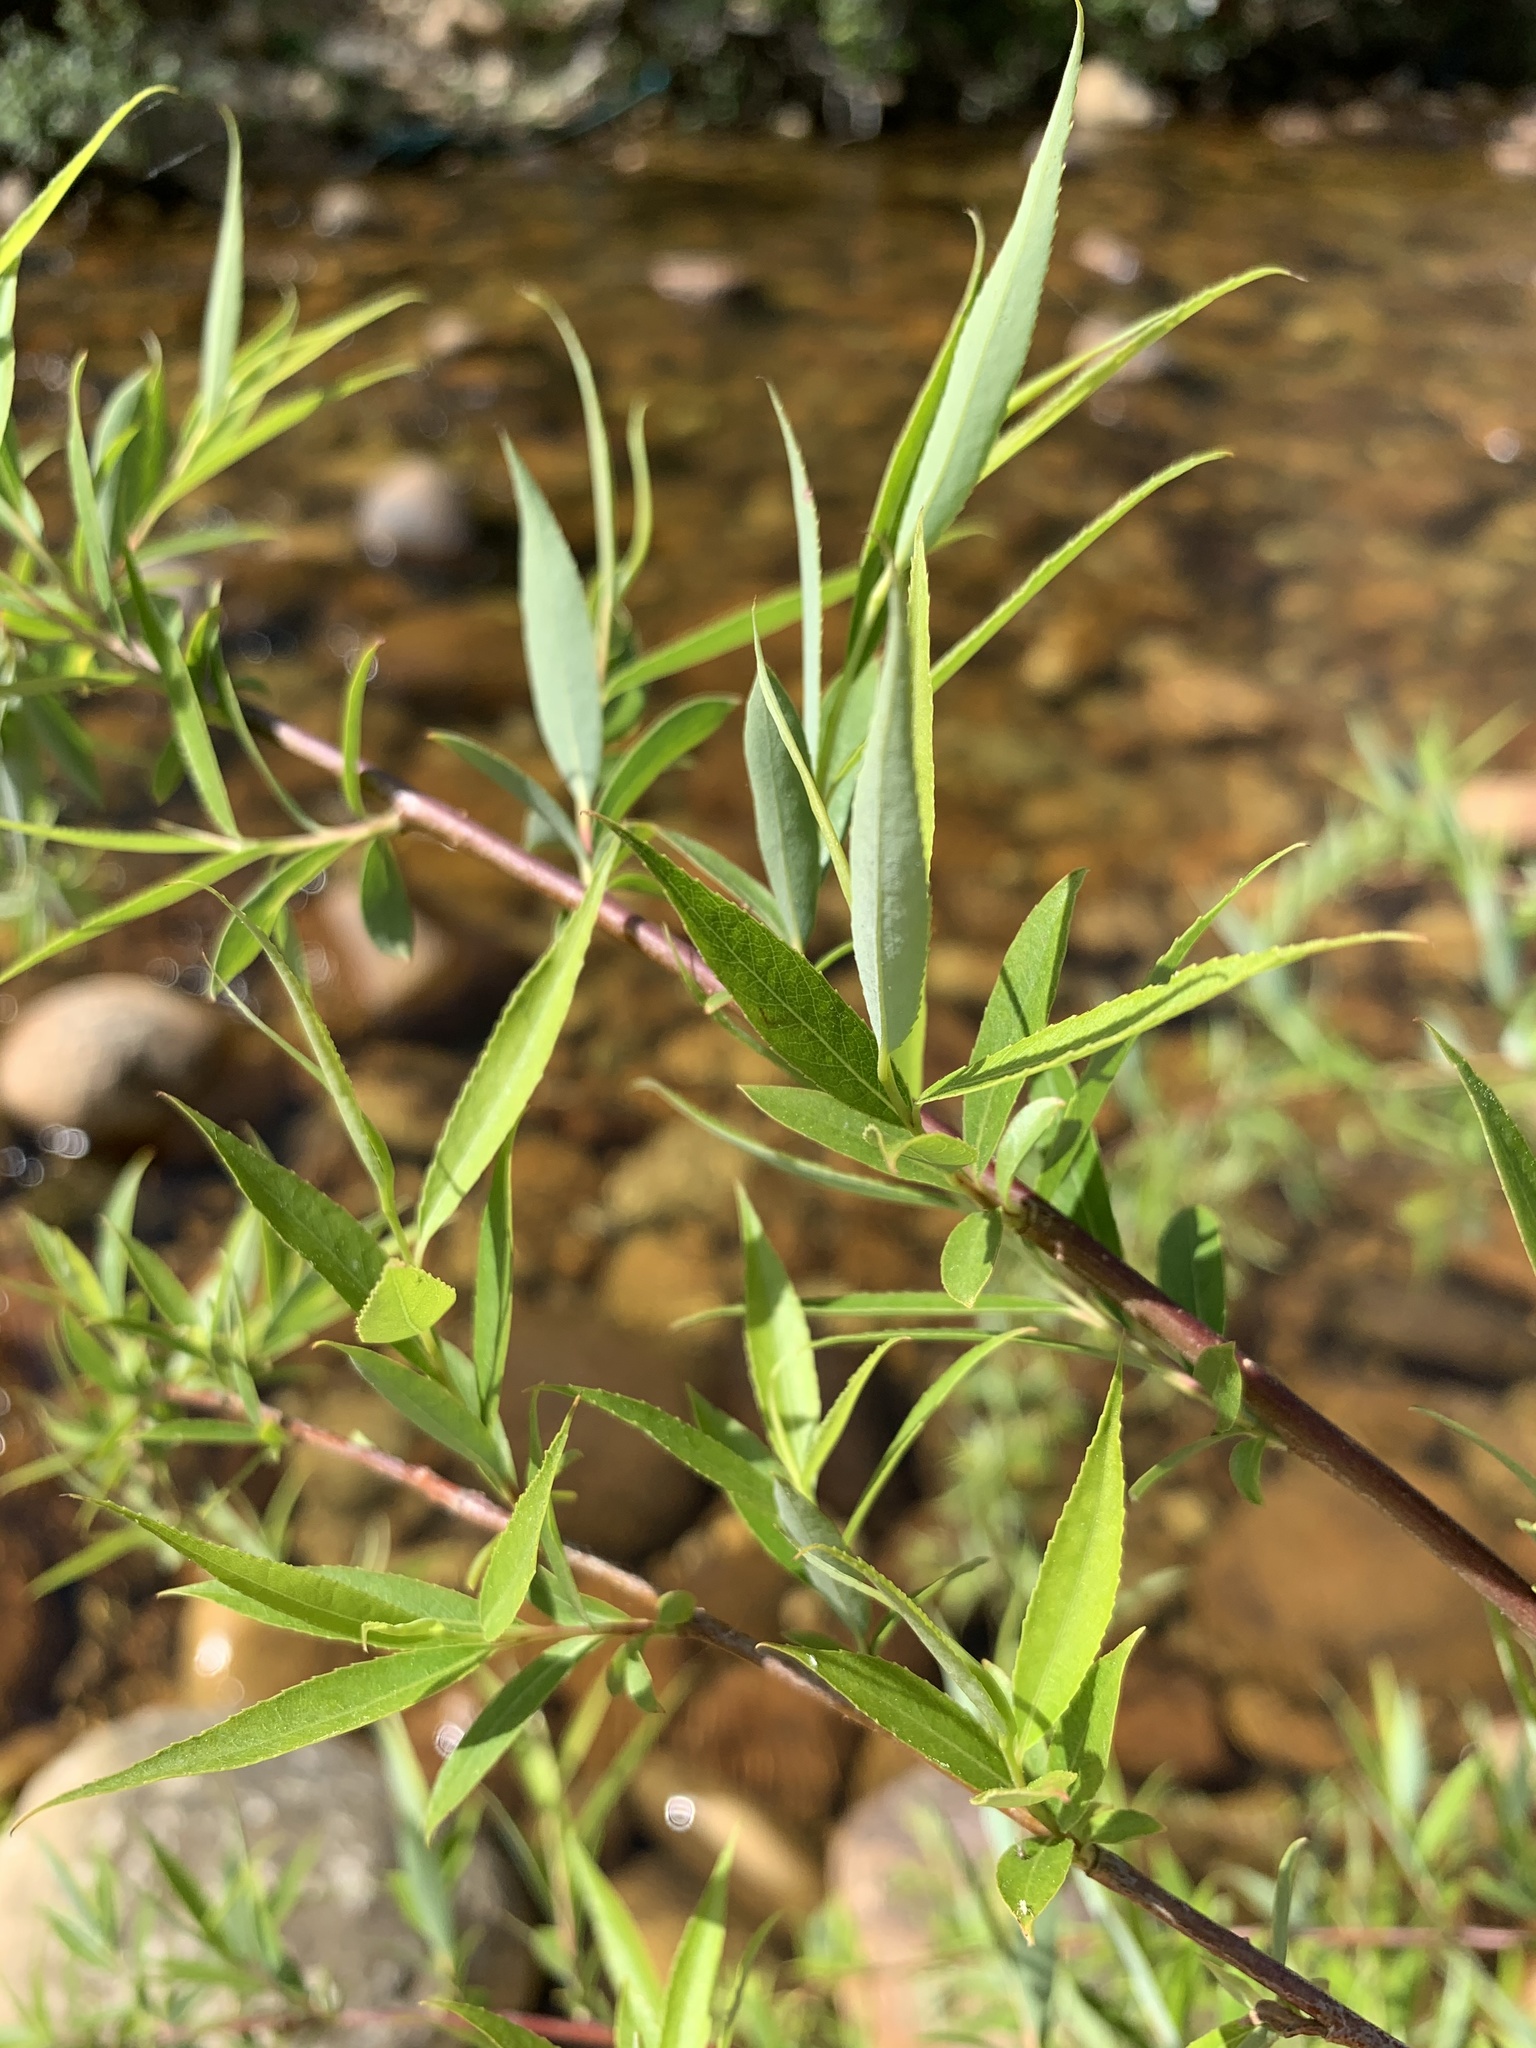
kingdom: Plantae
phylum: Tracheophyta
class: Magnoliopsida
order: Malpighiales
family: Salicaceae
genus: Salix
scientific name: Salix mucronata
